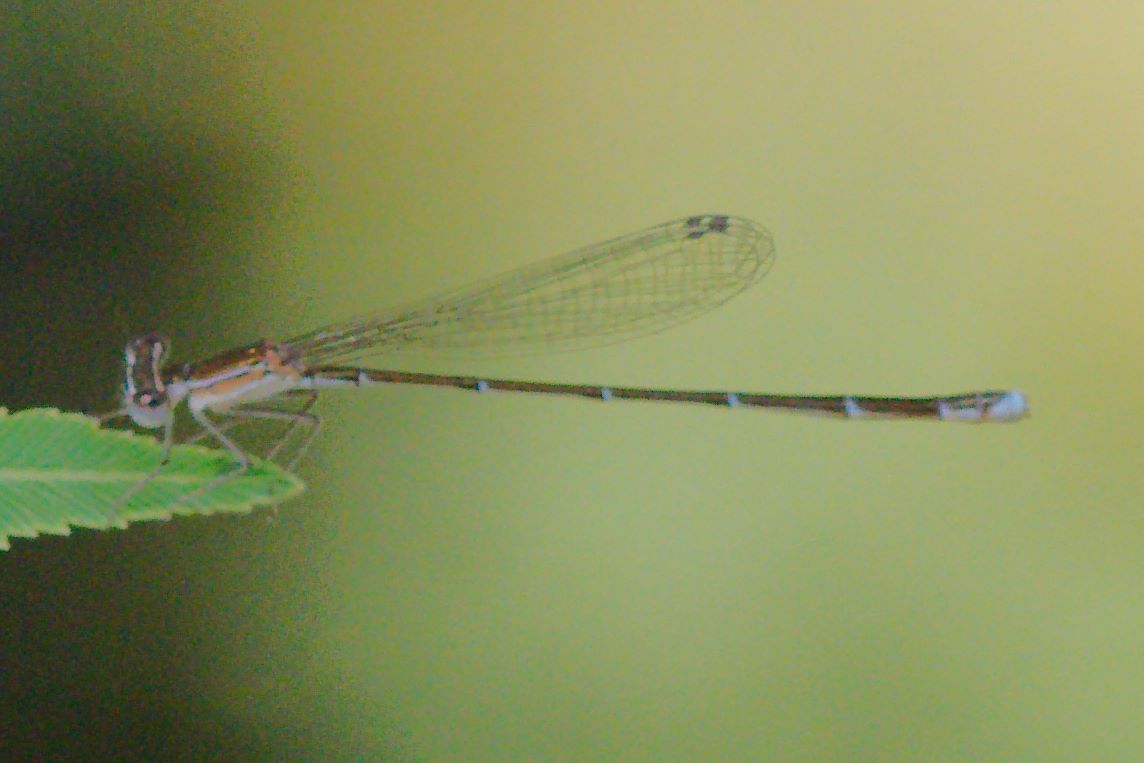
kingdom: Animalia
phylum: Arthropoda
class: Insecta
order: Odonata
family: Coenagrionidae
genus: Nehalennia
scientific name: Nehalennia pallidula
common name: Everglades sprite
